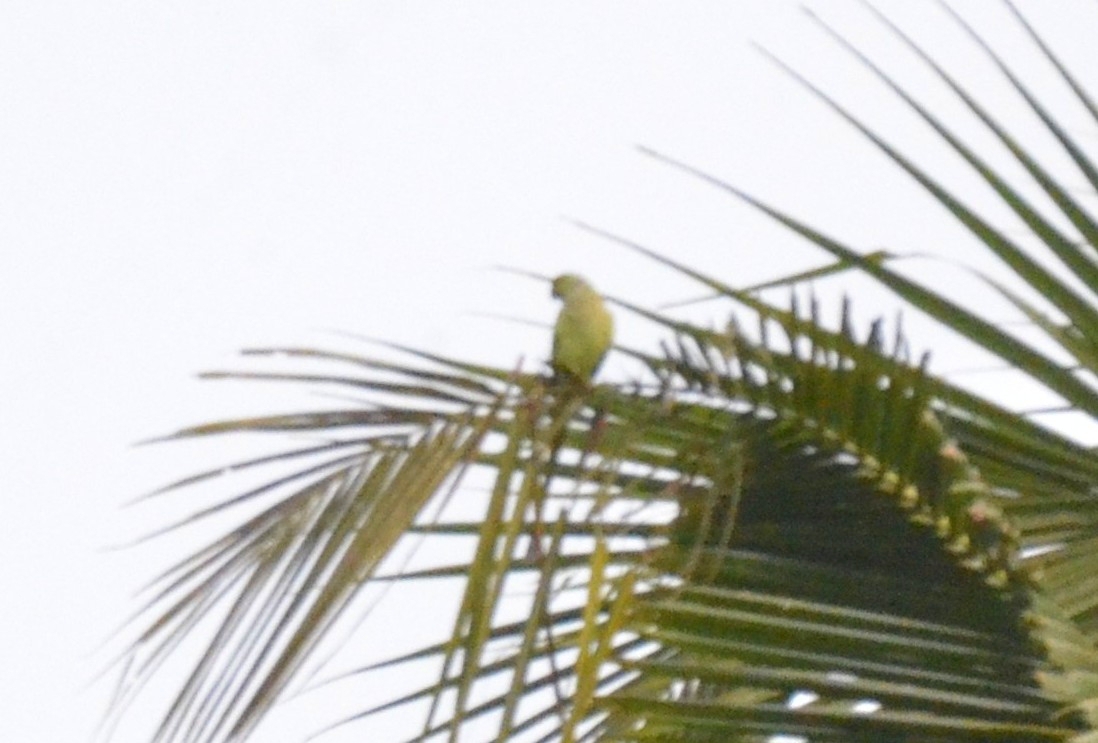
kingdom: Animalia
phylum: Chordata
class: Aves
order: Psittaciformes
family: Psittacidae
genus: Psittacula
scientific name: Psittacula krameri
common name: Rose-ringed parakeet
